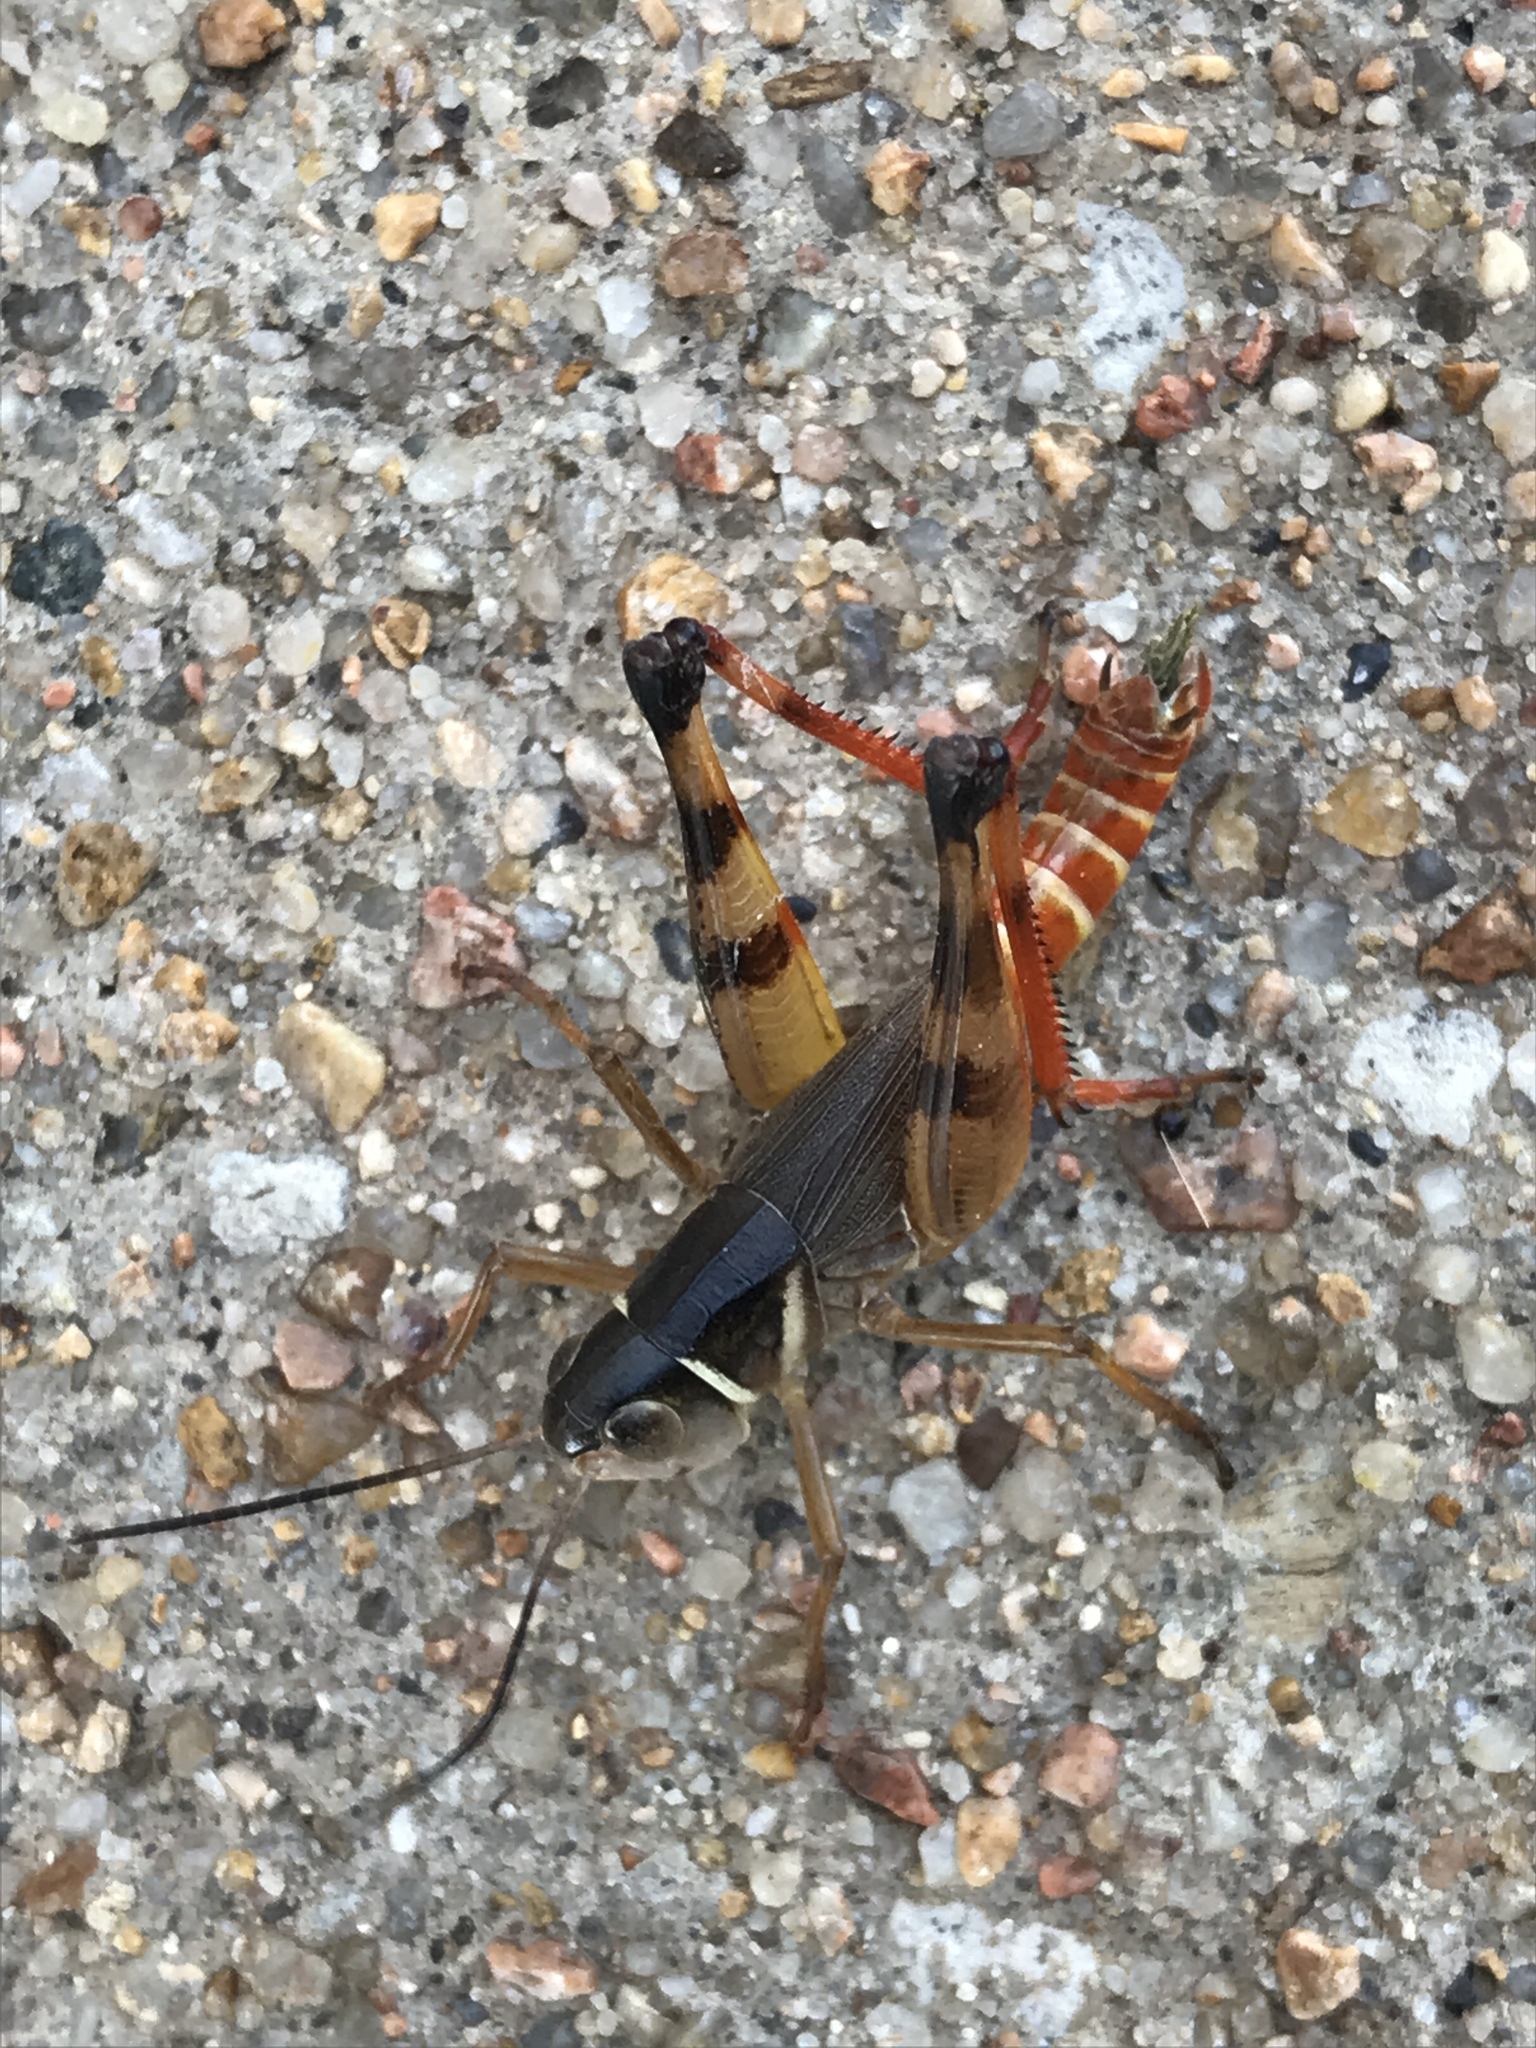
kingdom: Animalia
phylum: Arthropoda
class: Insecta
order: Orthoptera
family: Acrididae
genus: Boopedon
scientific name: Boopedon auriventris
